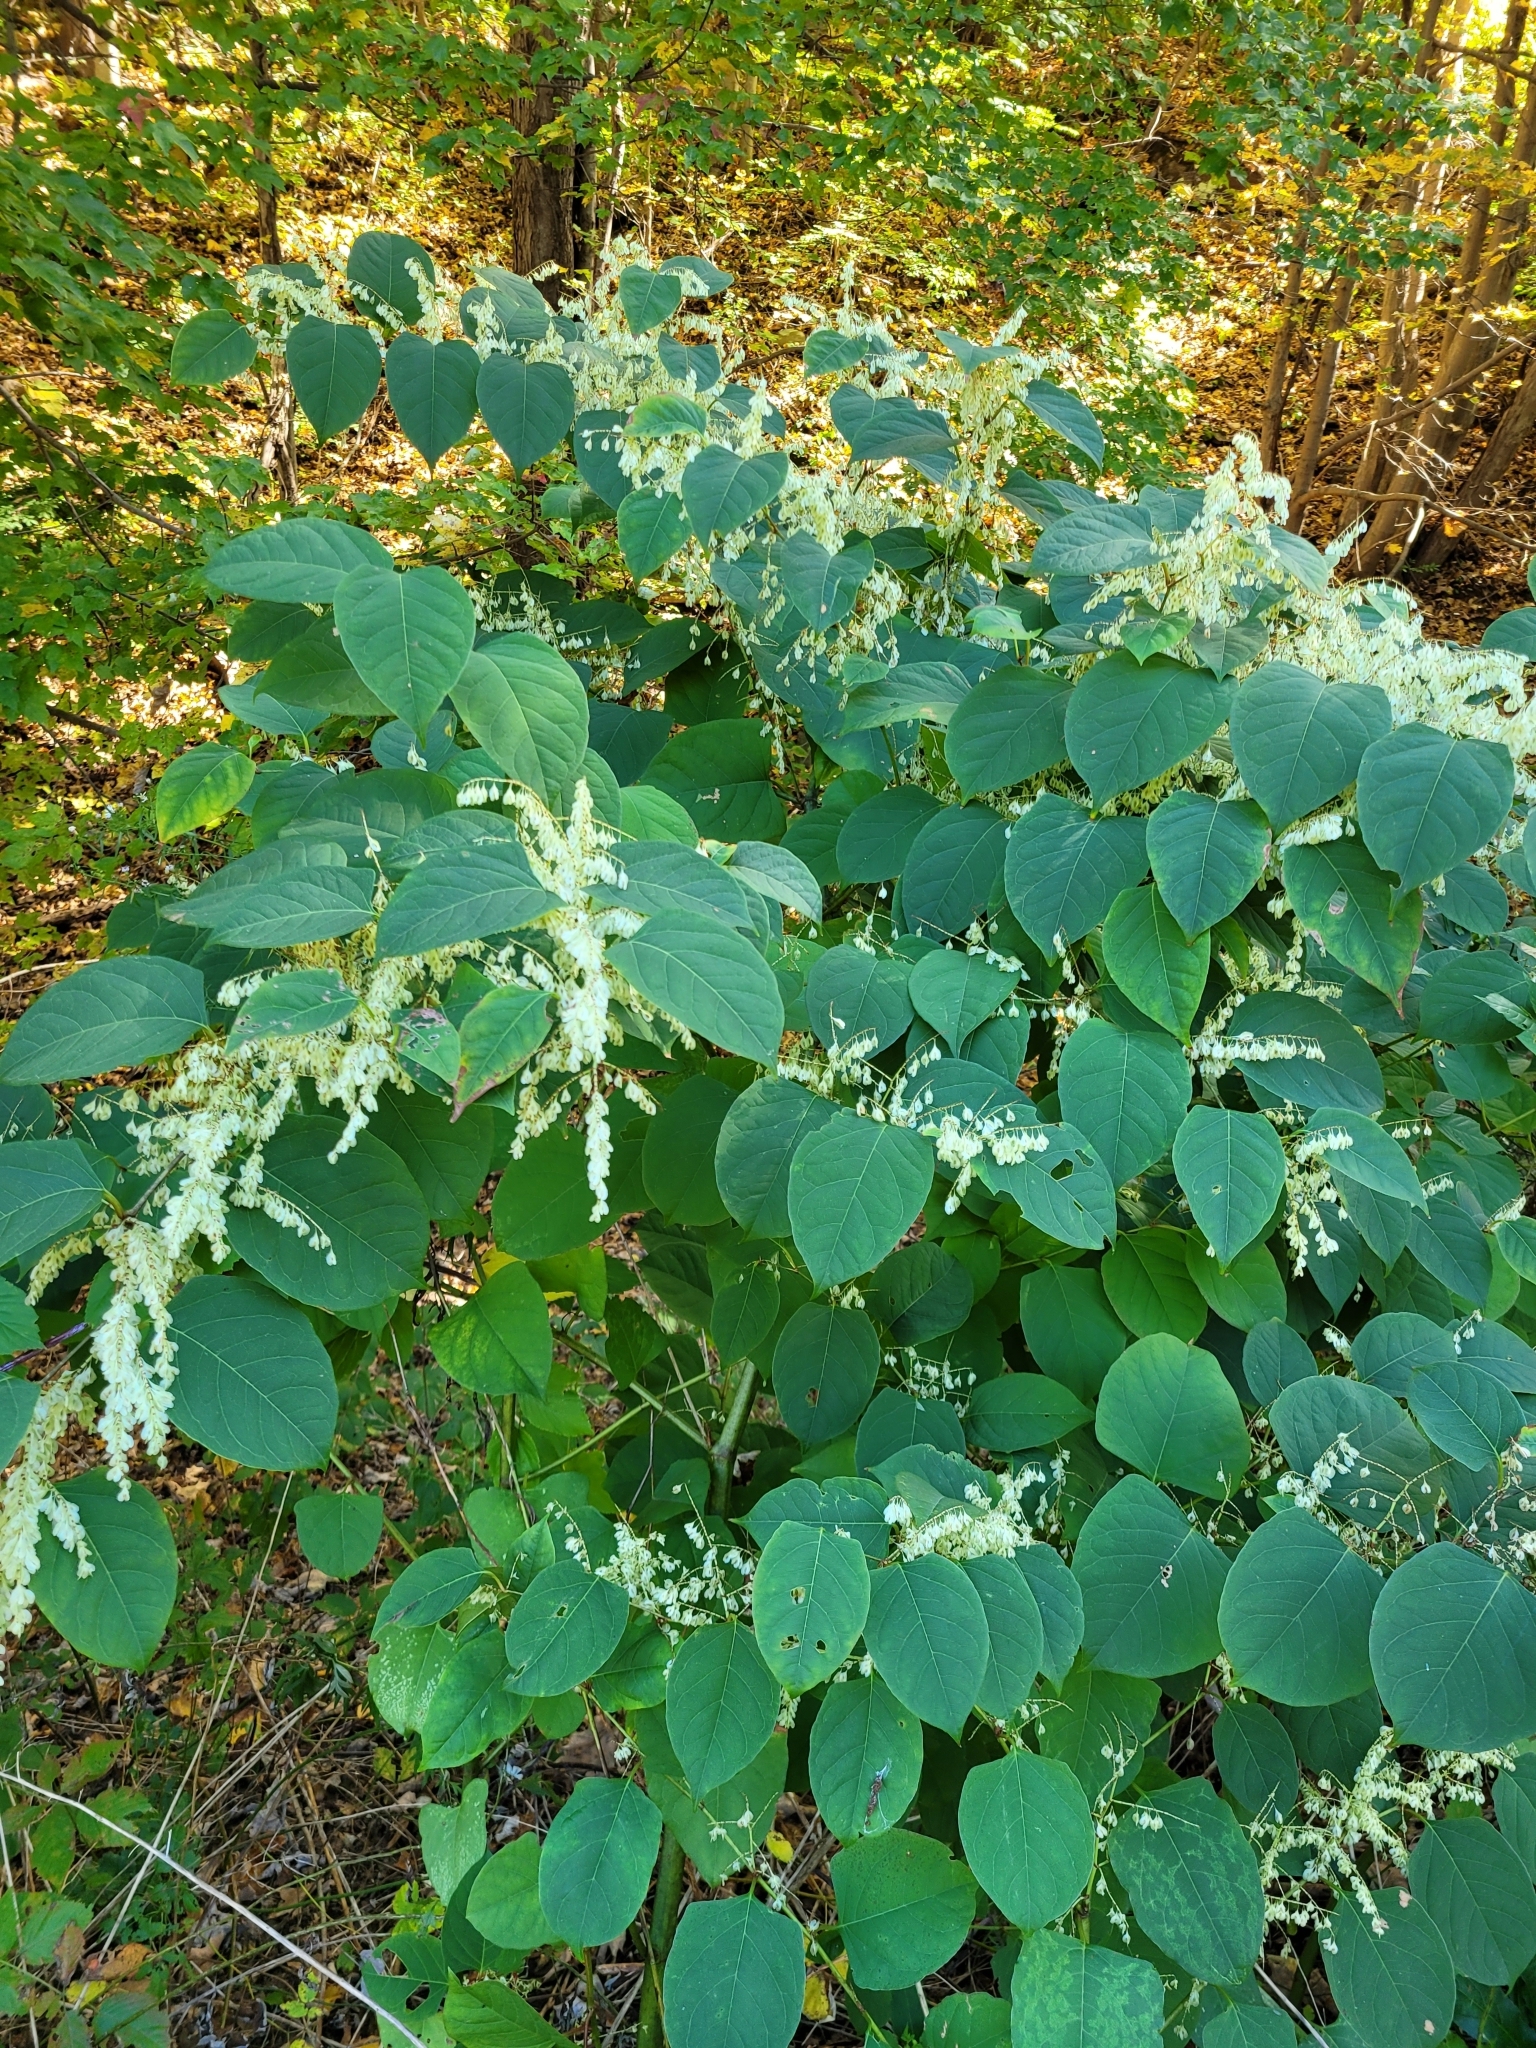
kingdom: Plantae
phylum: Tracheophyta
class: Magnoliopsida
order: Caryophyllales
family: Polygonaceae
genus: Reynoutria
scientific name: Reynoutria japonica
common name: Japanese knotweed
